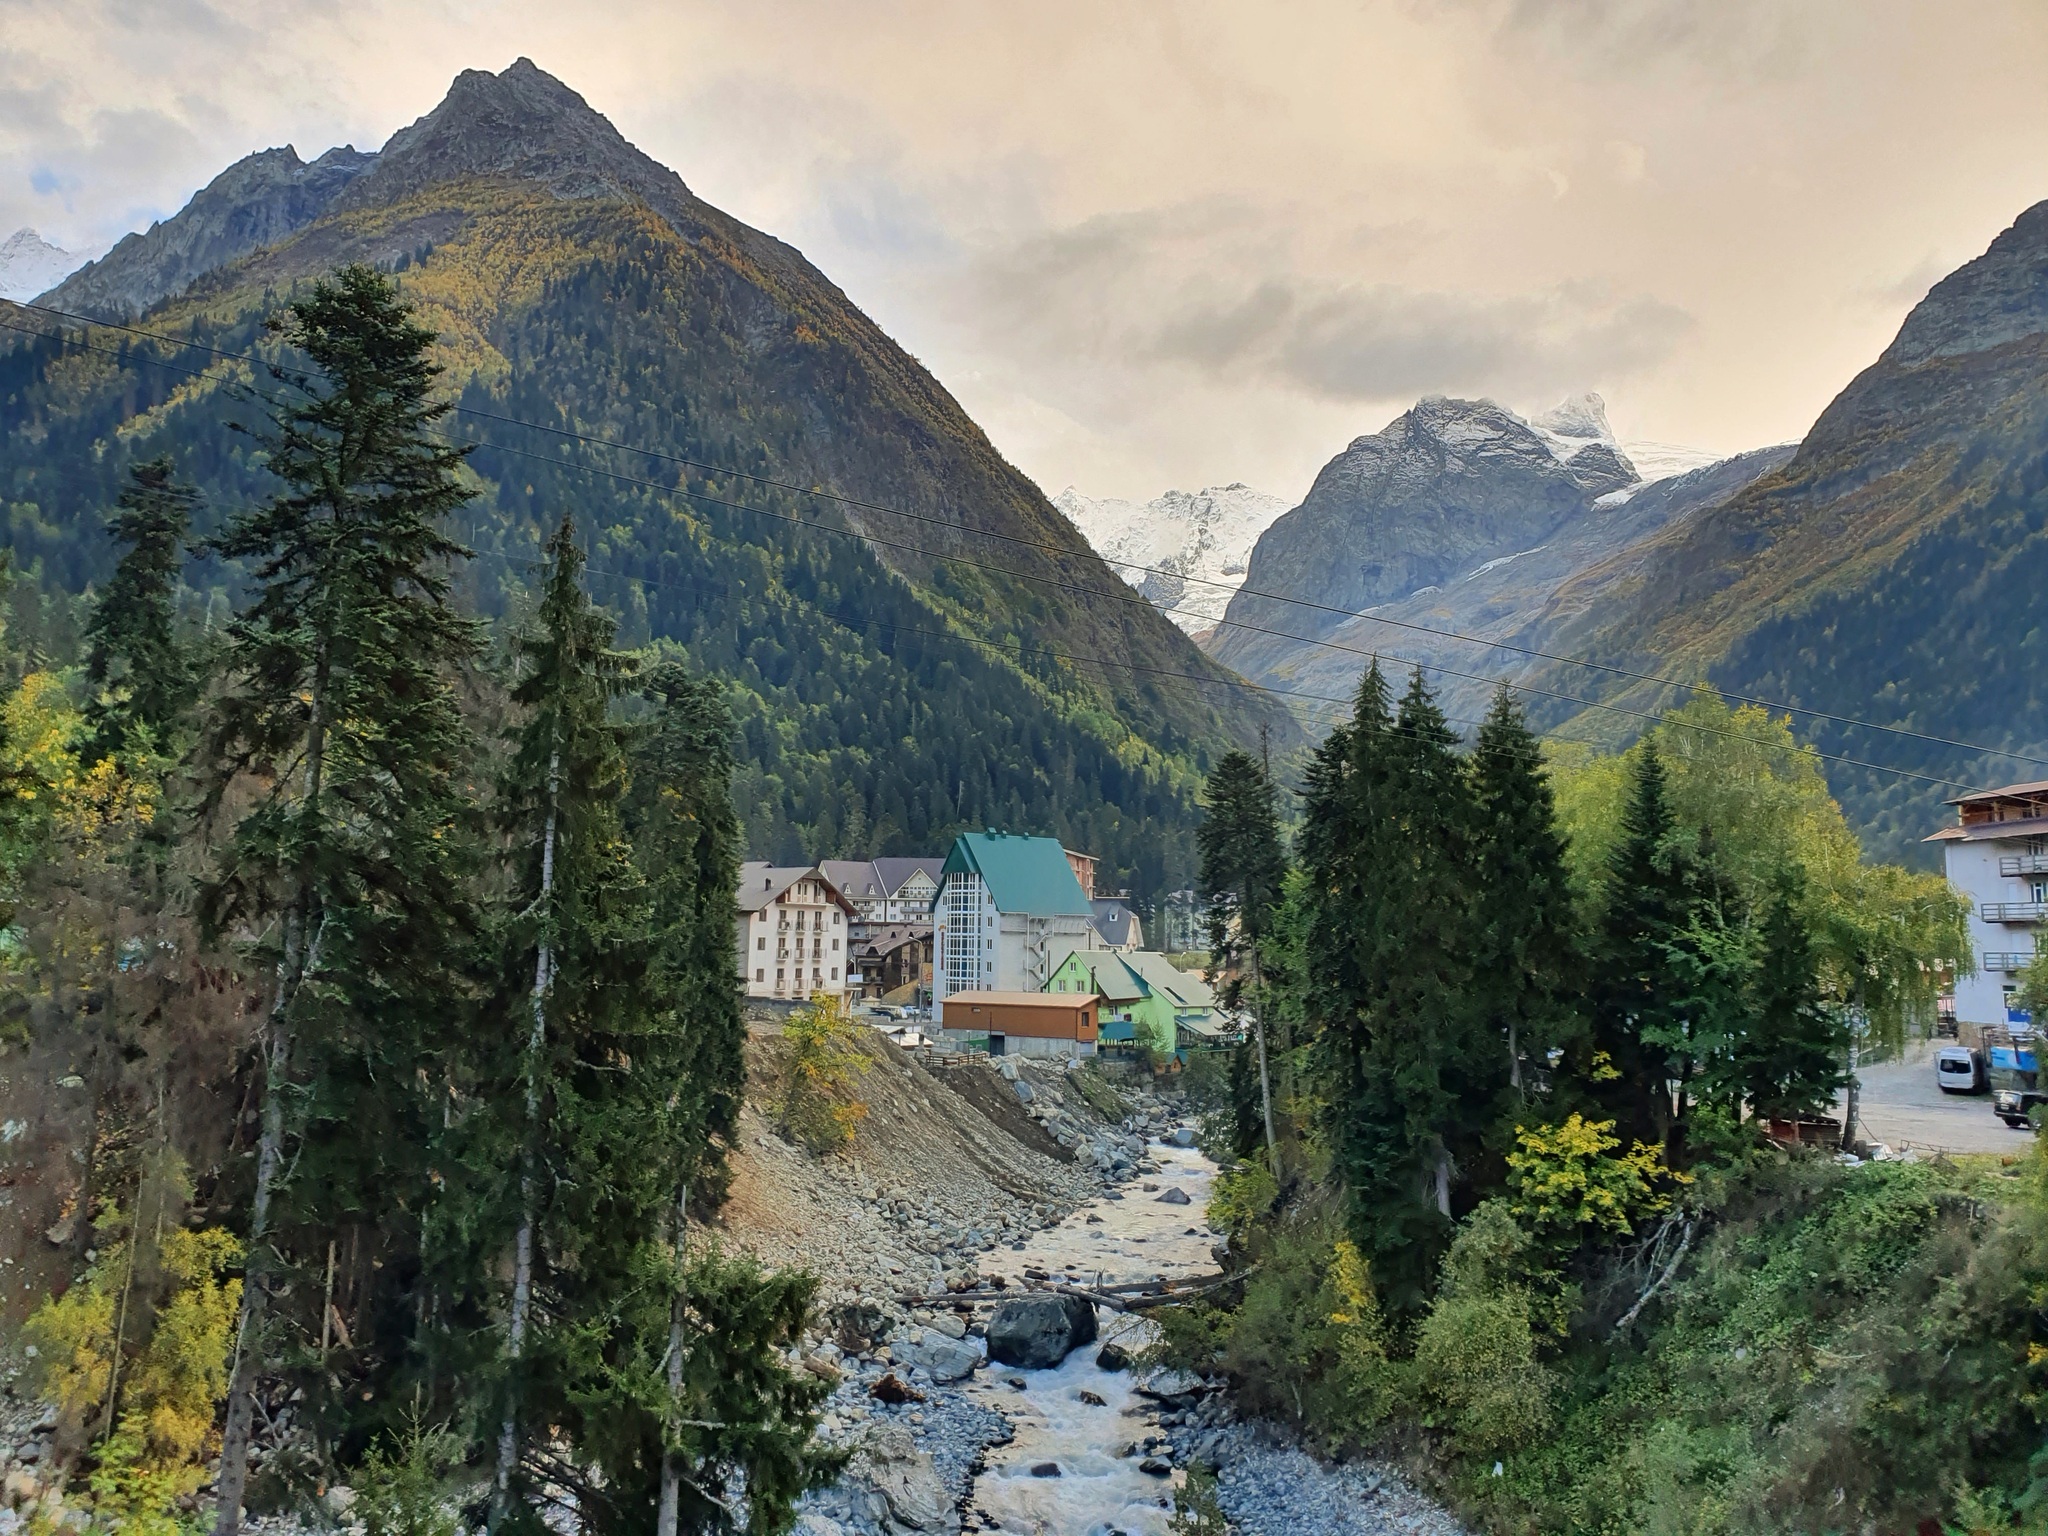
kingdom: Plantae
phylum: Tracheophyta
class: Pinopsida
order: Pinales
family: Pinaceae
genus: Picea
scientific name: Picea orientalis
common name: Oriental spruce
